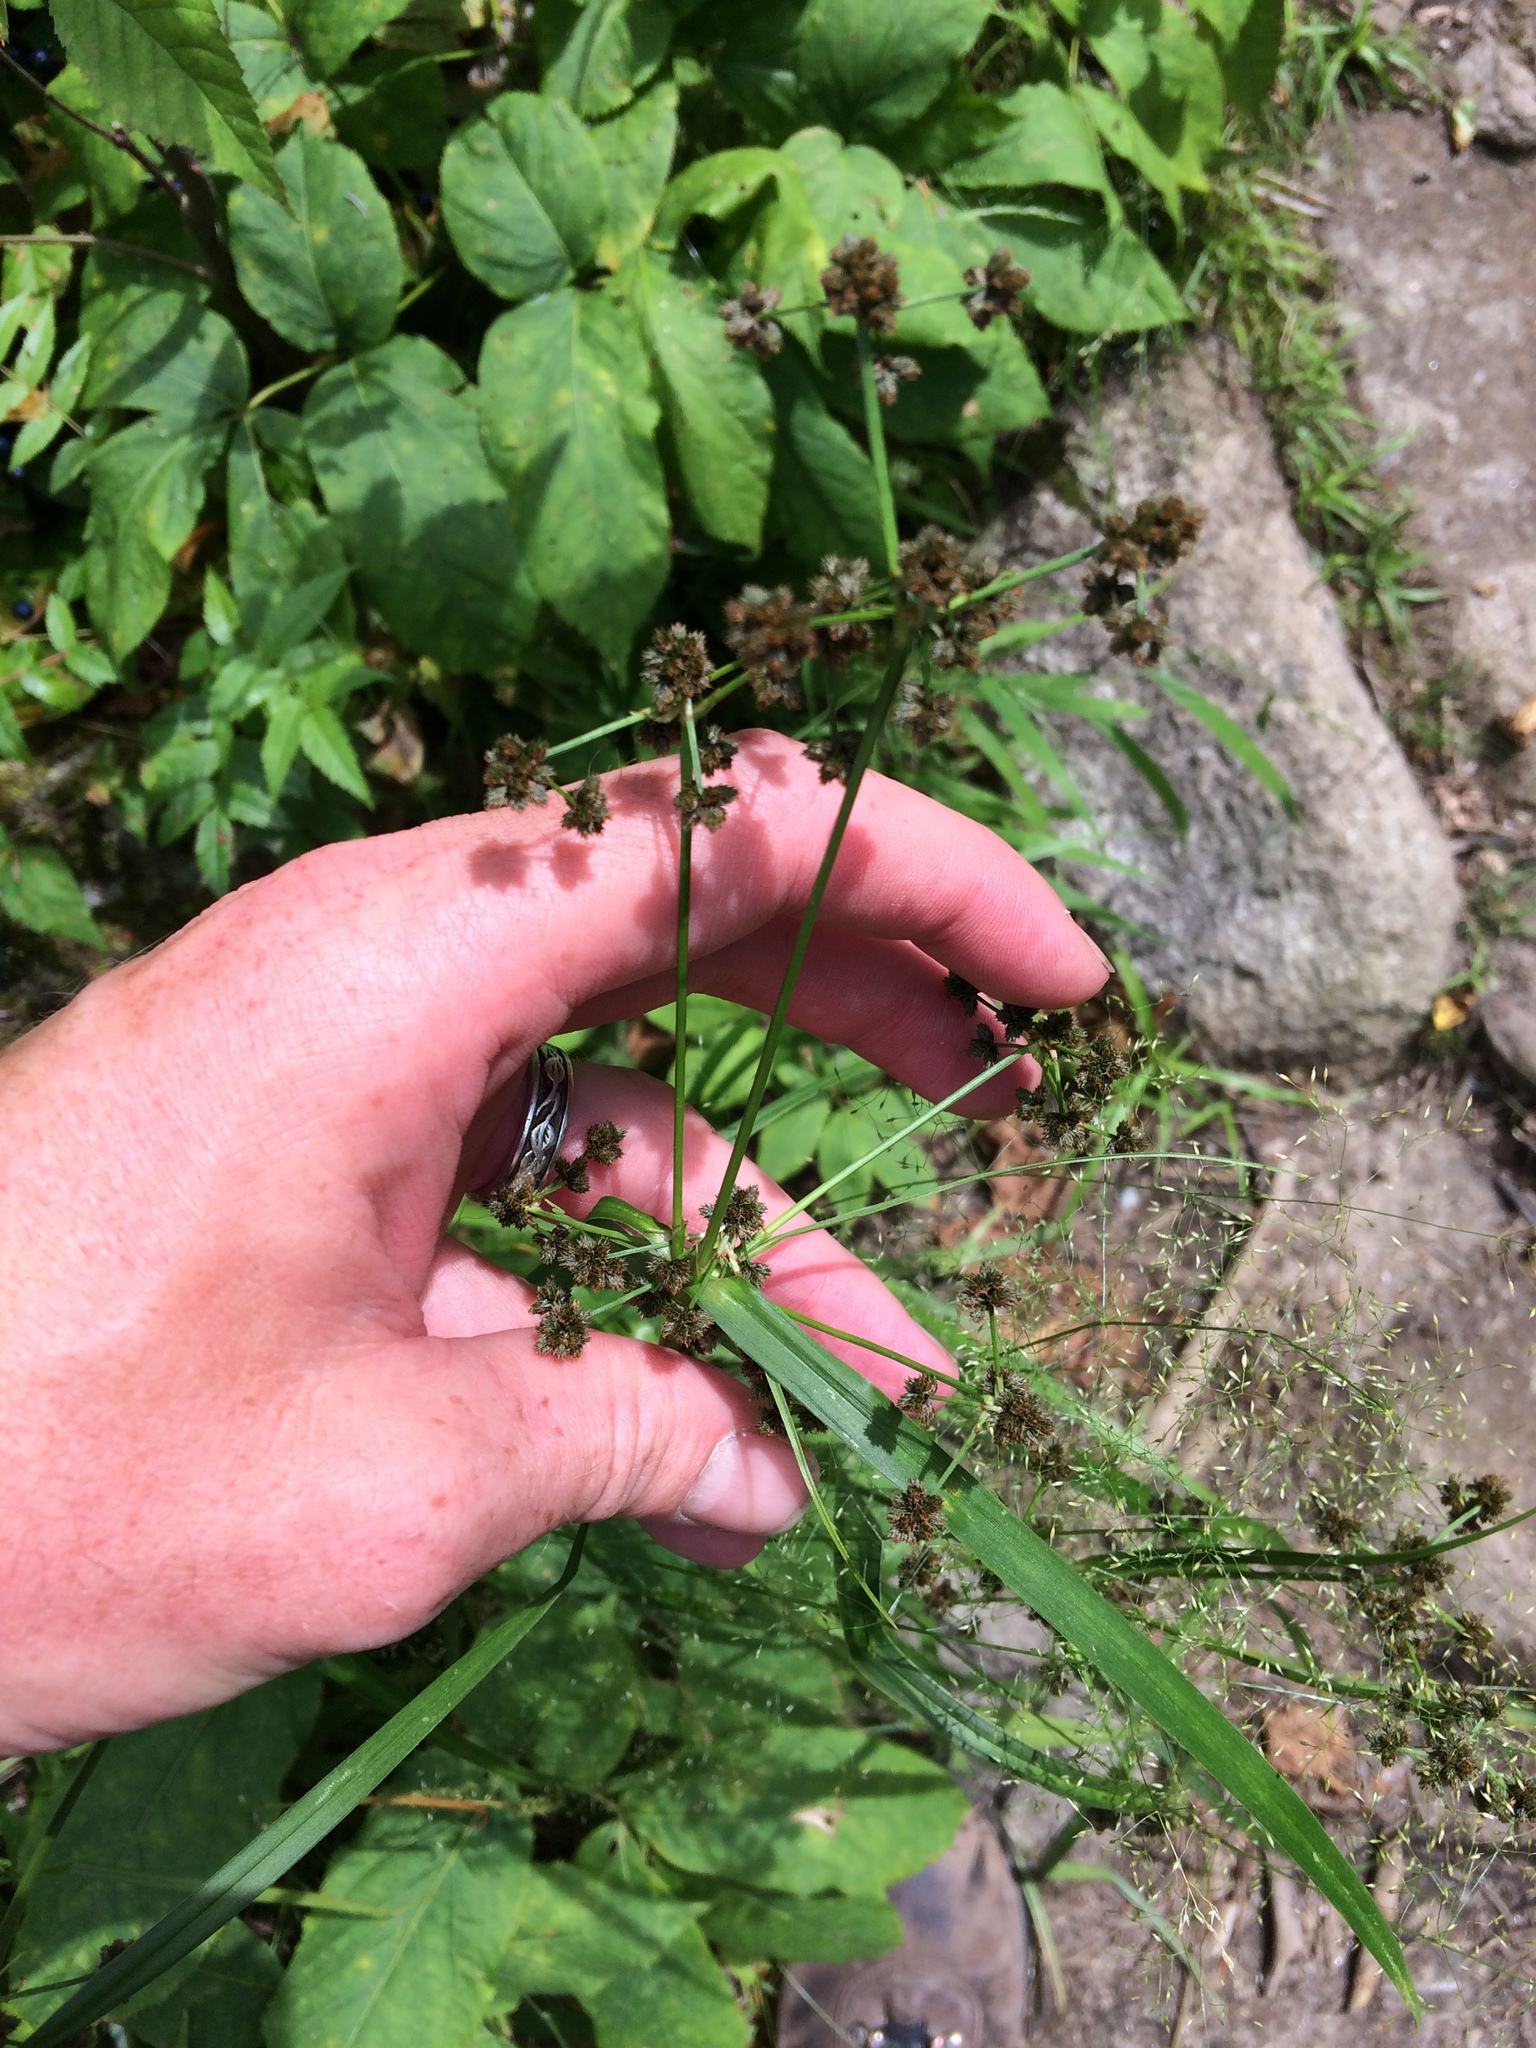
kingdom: Plantae
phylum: Tracheophyta
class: Liliopsida
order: Poales
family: Cyperaceae
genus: Scirpus
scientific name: Scirpus atrovirens
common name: Black bulrush
